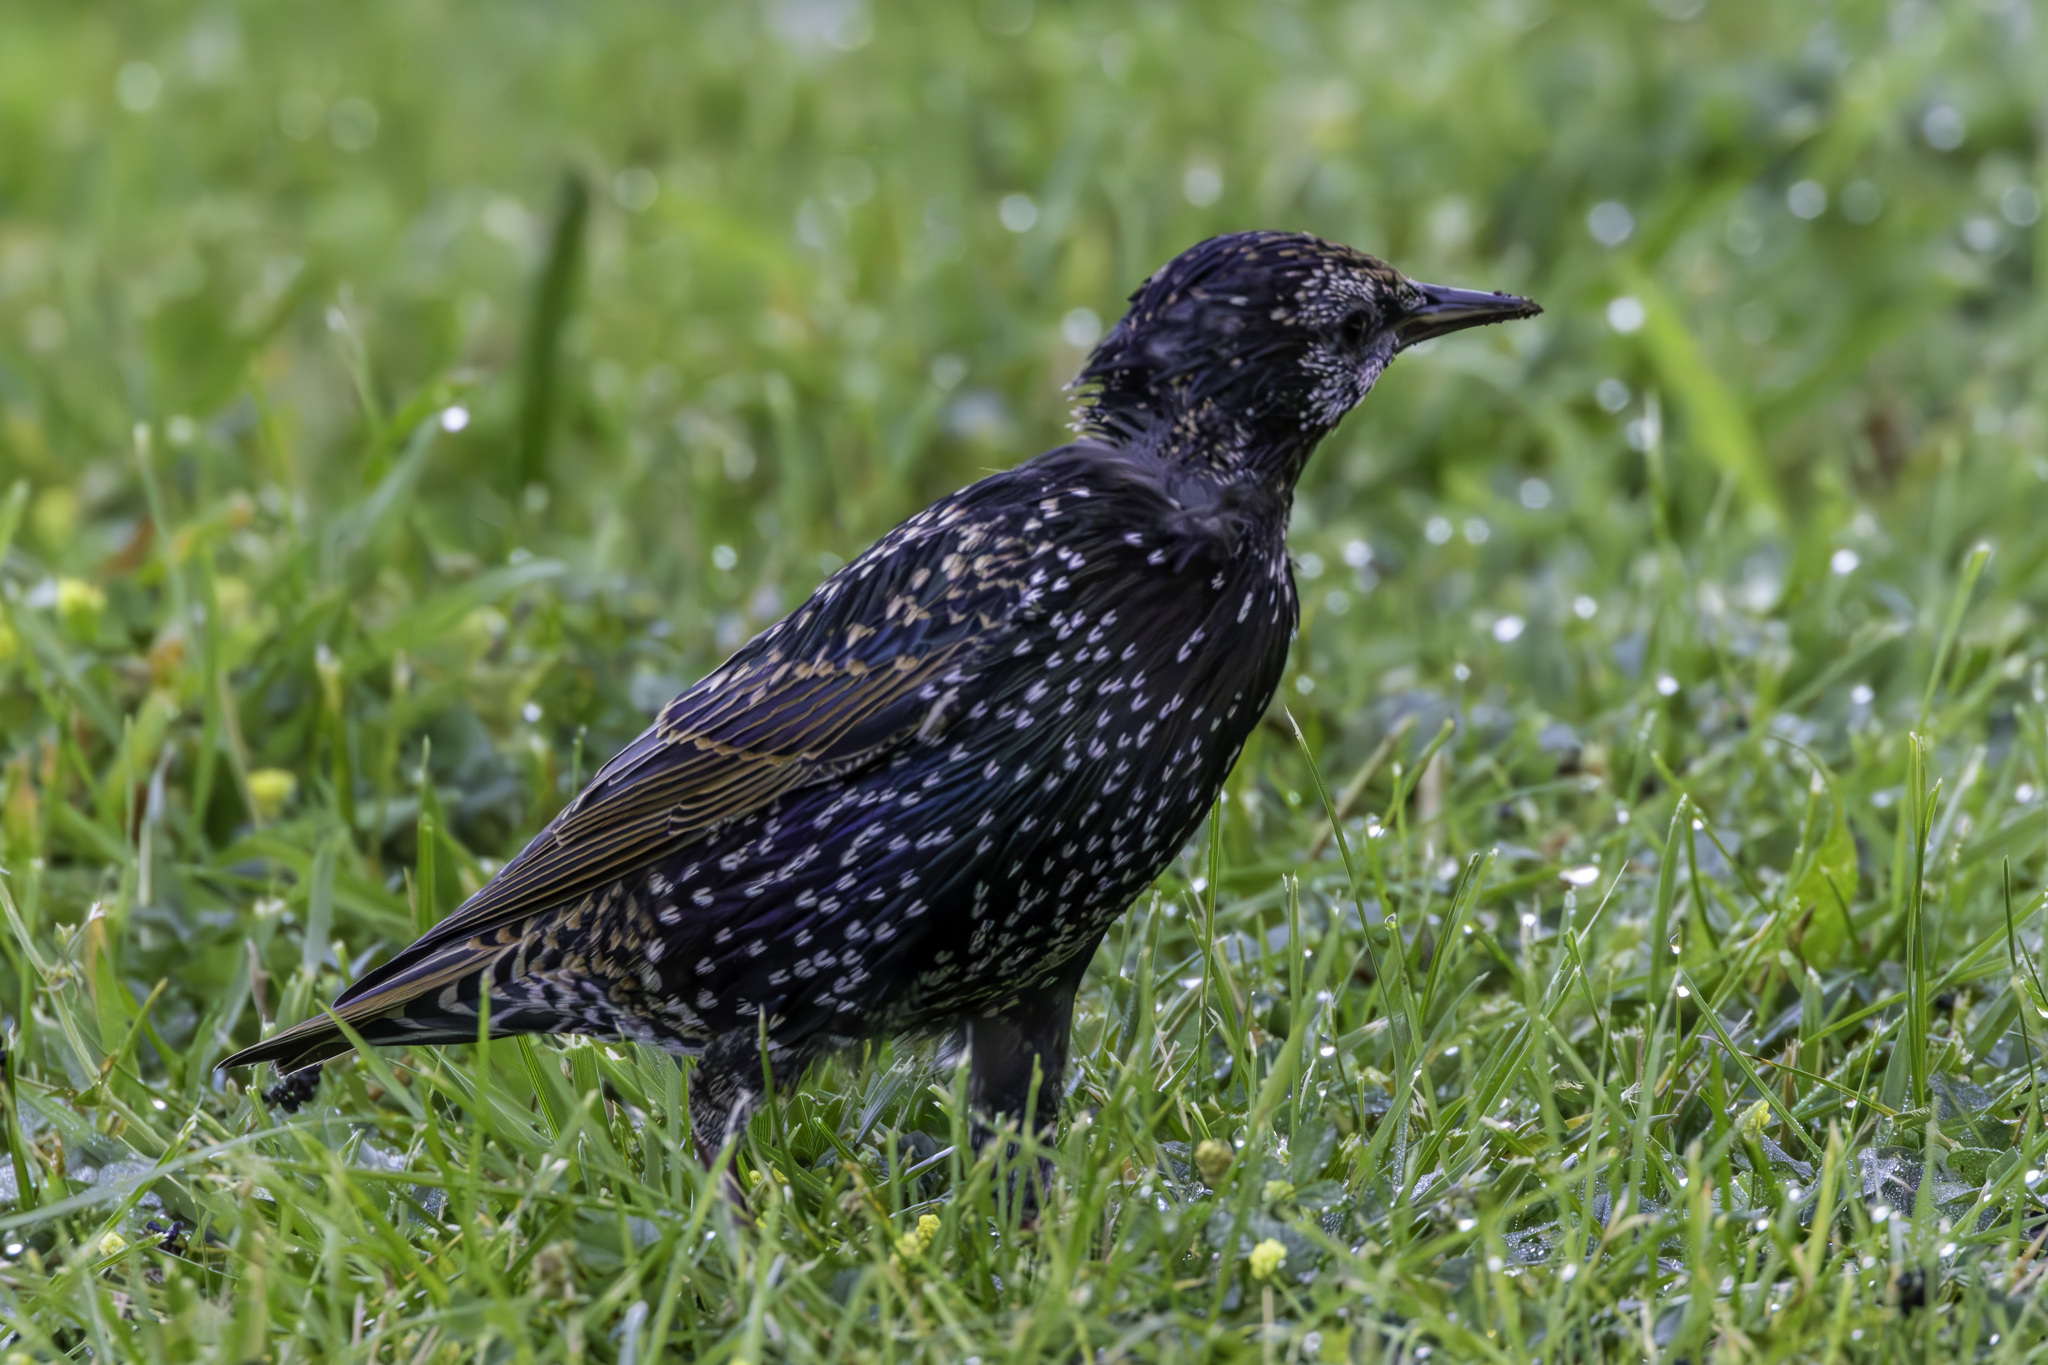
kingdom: Animalia
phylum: Chordata
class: Aves
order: Passeriformes
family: Sturnidae
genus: Sturnus
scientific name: Sturnus vulgaris
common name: Common starling
